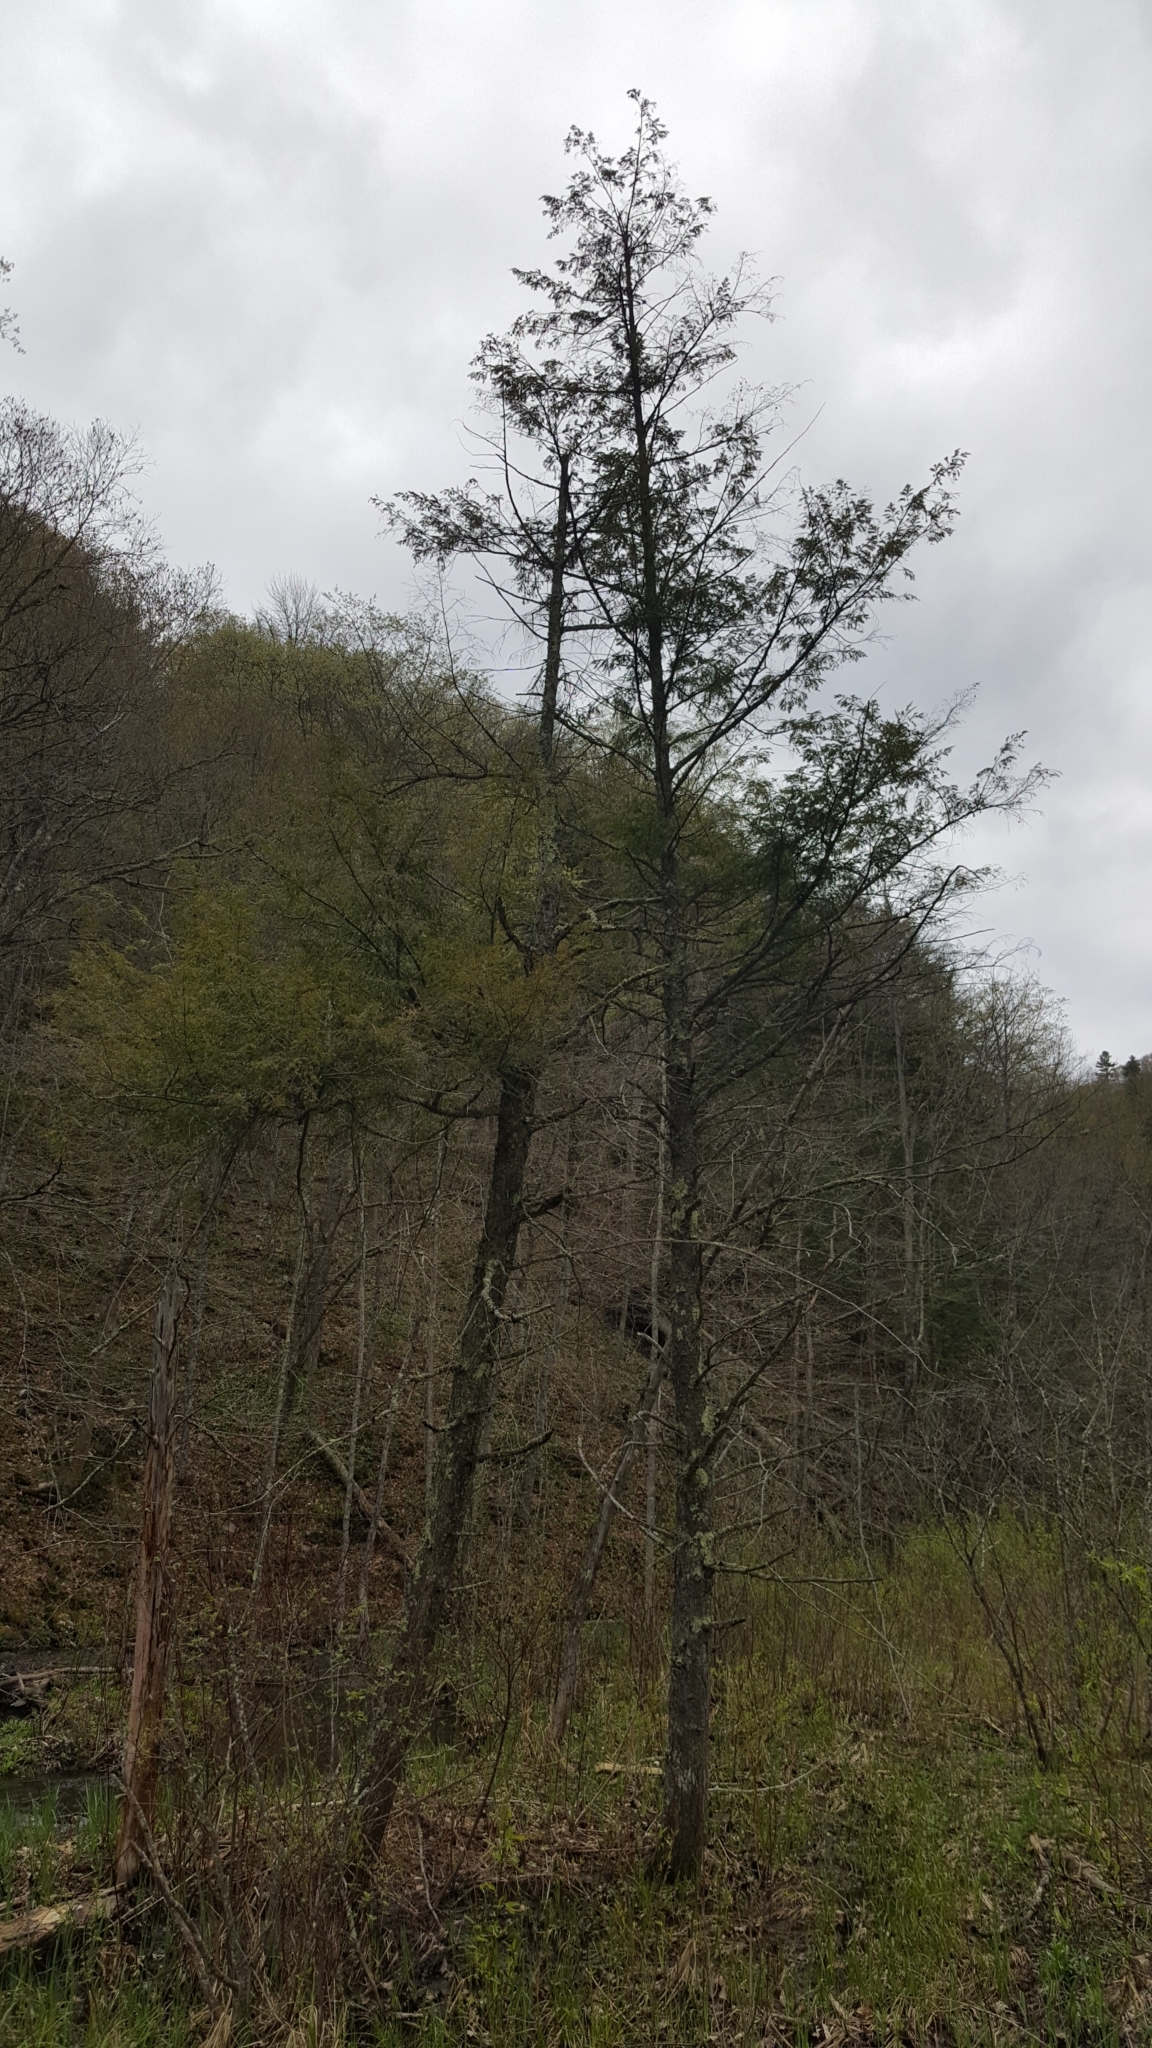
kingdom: Plantae
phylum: Tracheophyta
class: Pinopsida
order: Pinales
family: Pinaceae
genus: Tsuga
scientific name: Tsuga canadensis
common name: Eastern hemlock
